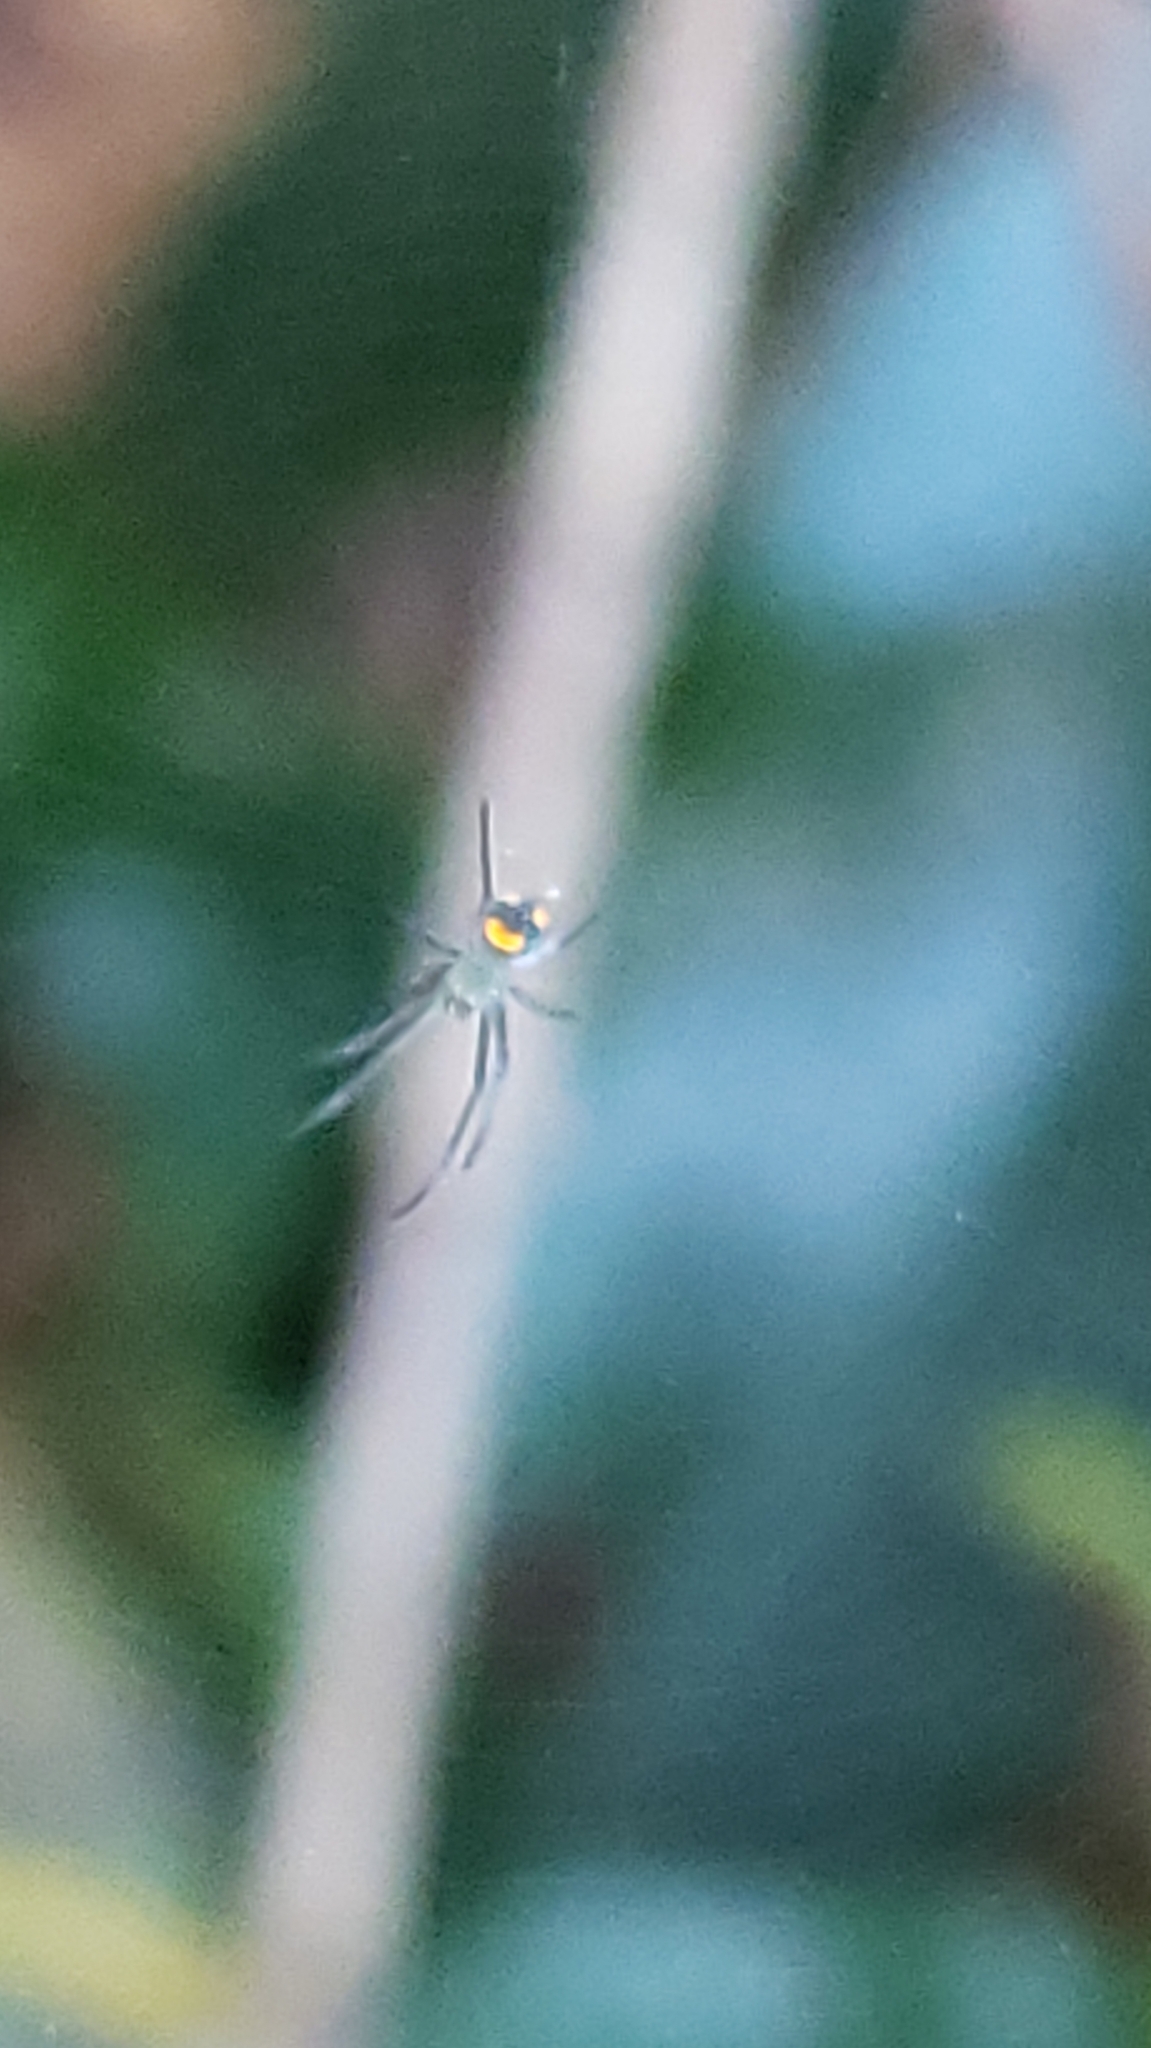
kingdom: Animalia
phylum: Arthropoda
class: Arachnida
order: Araneae
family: Tetragnathidae
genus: Leucauge
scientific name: Leucauge argyrobapta
